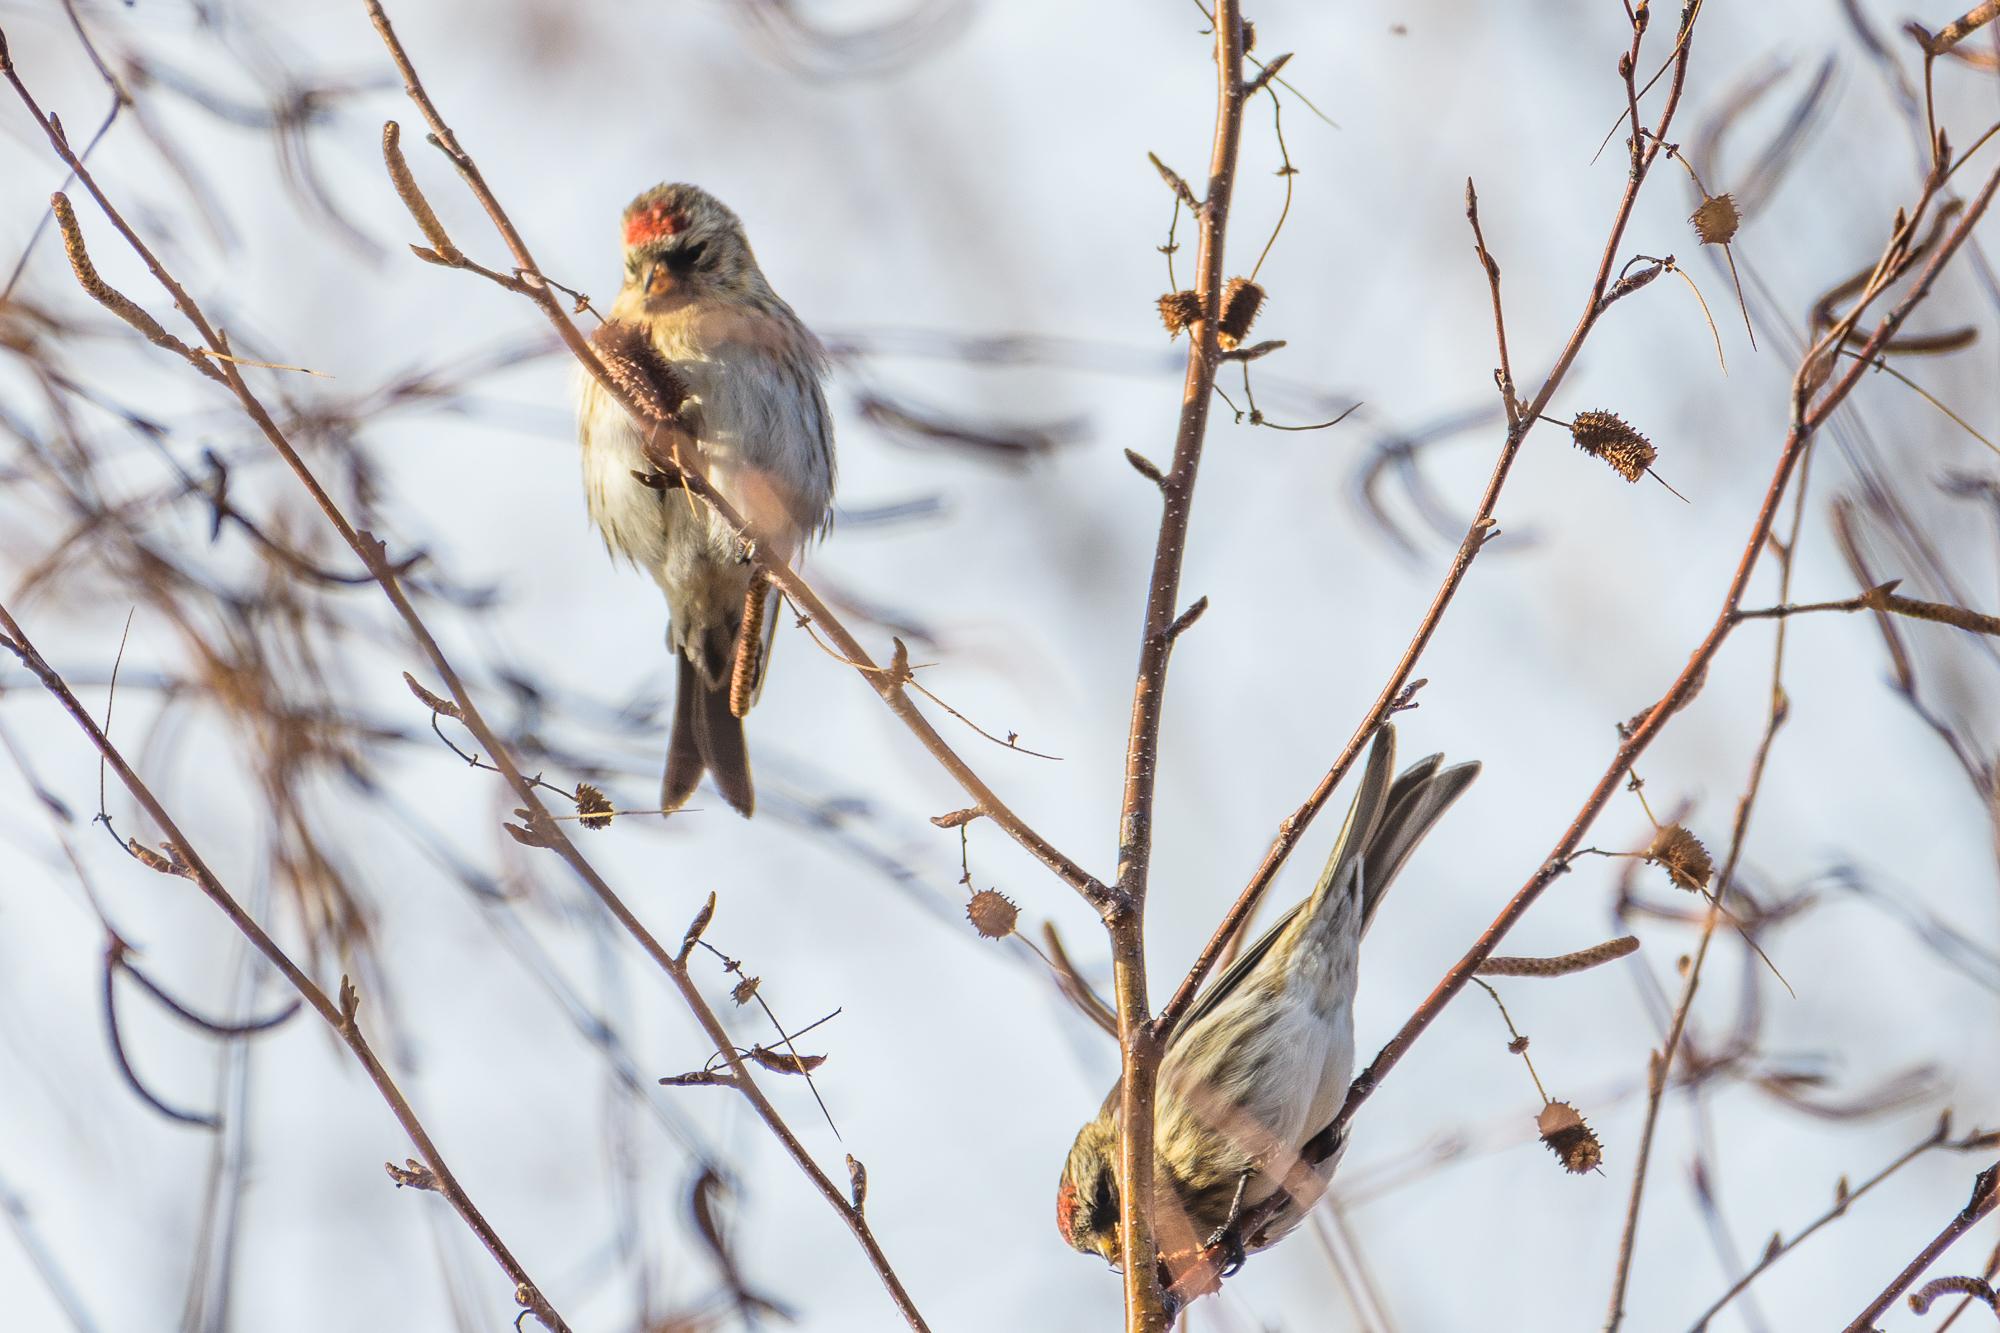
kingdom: Animalia
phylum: Chordata
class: Aves
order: Passeriformes
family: Fringillidae
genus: Acanthis
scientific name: Acanthis flammea
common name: Common redpoll
